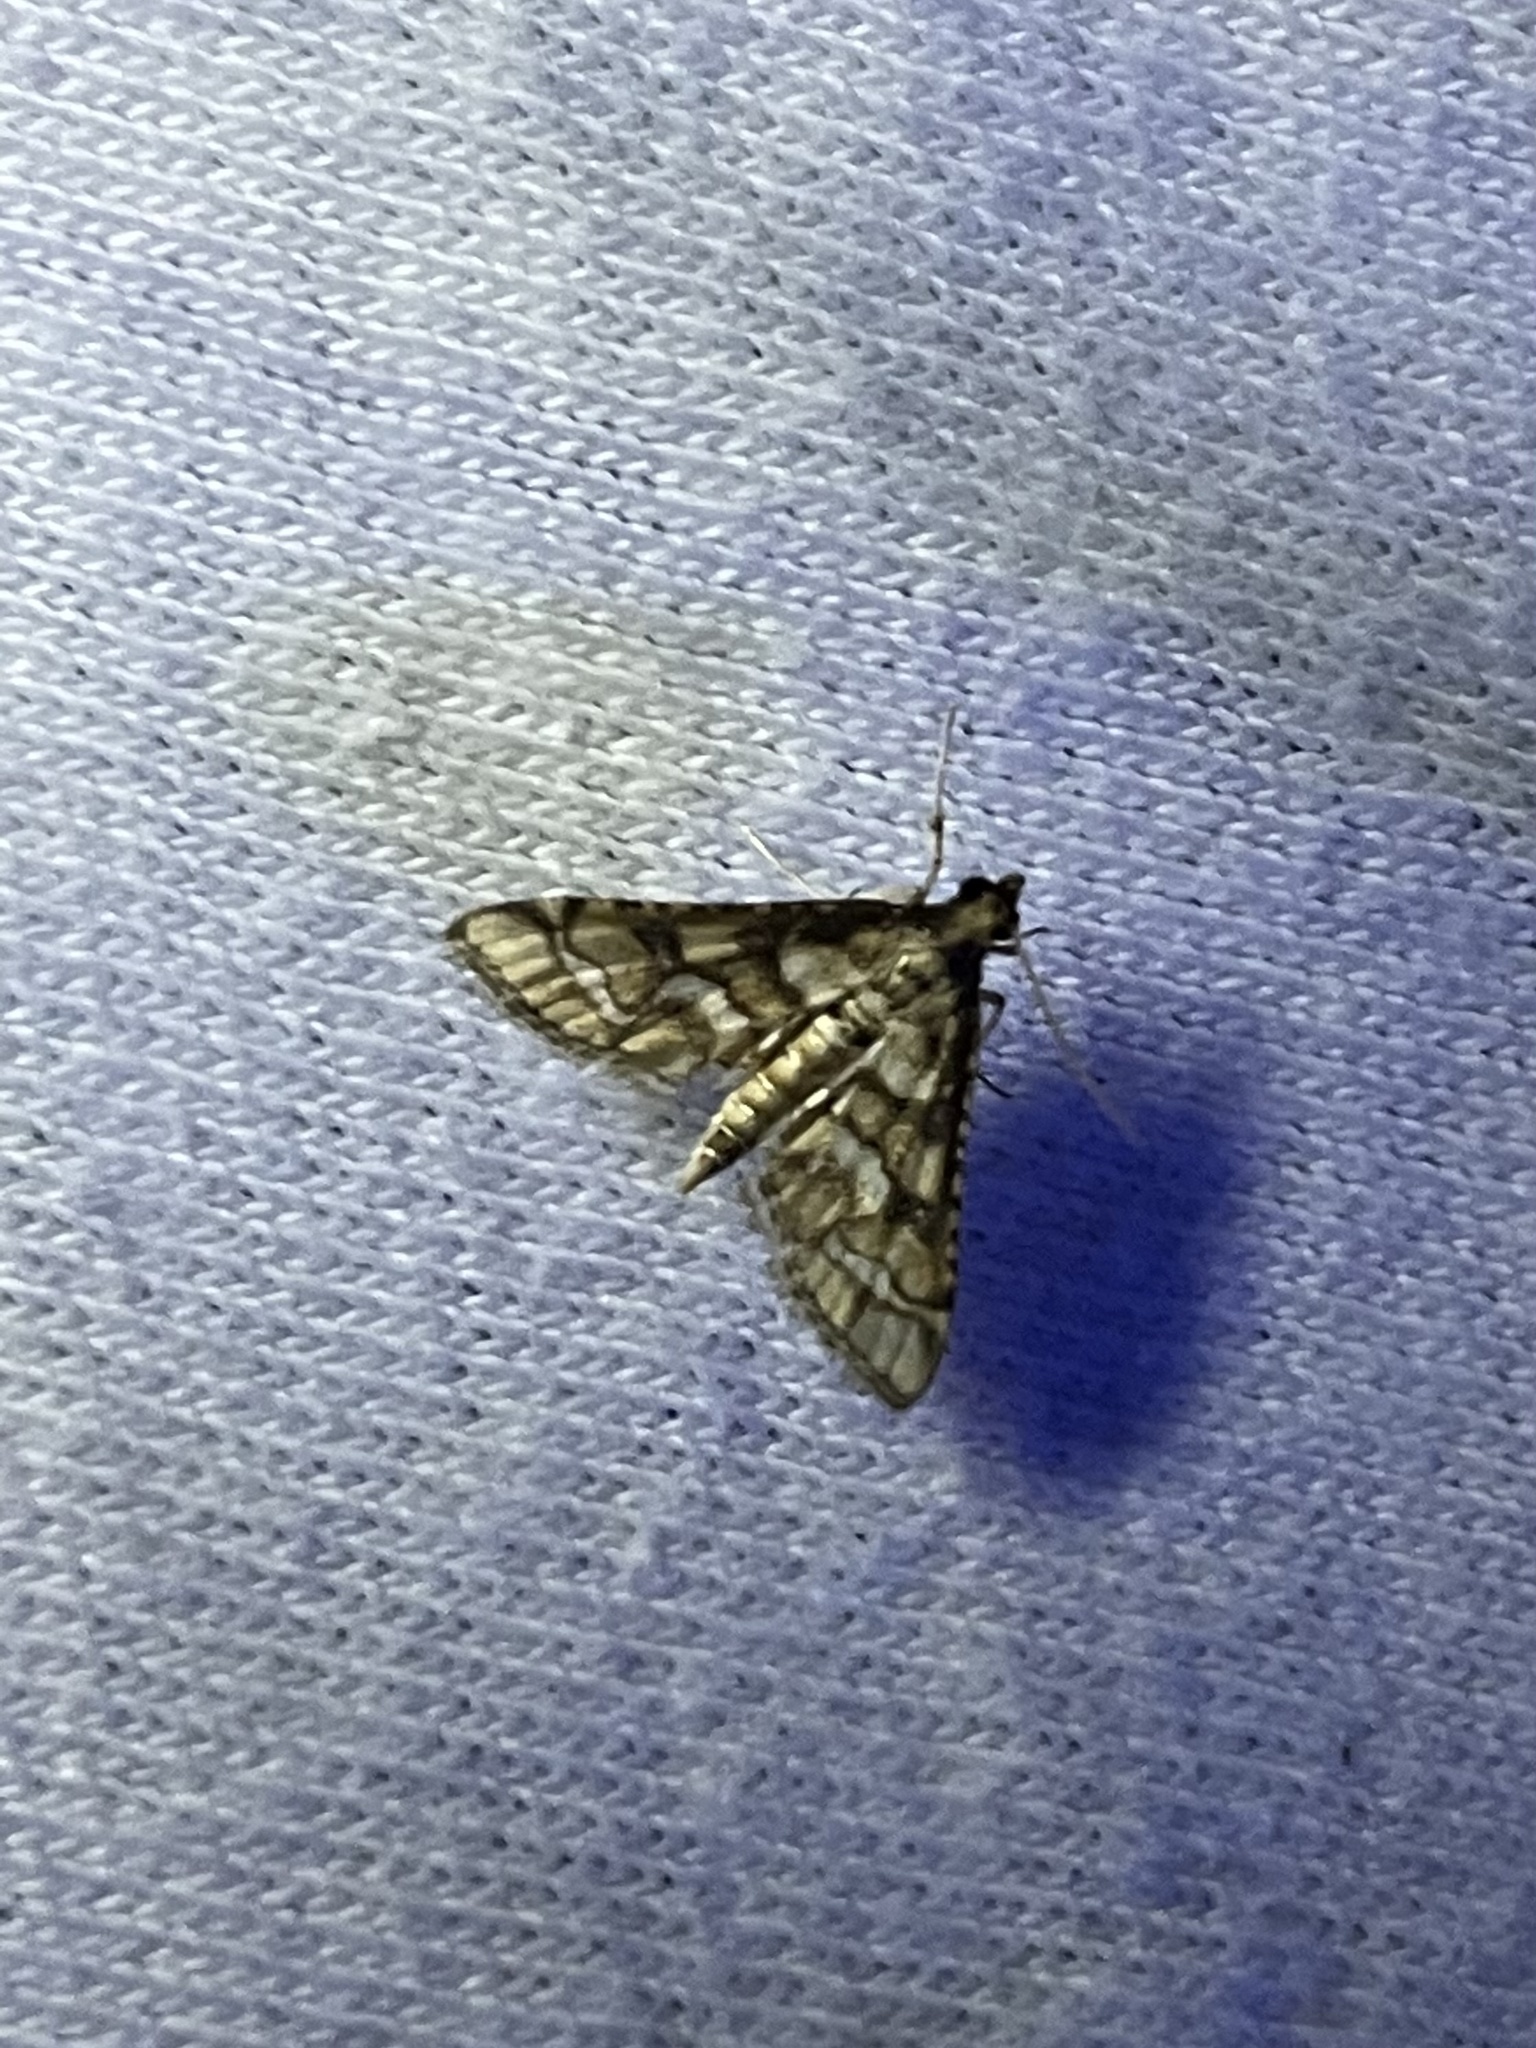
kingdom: Animalia
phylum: Arthropoda
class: Insecta
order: Lepidoptera
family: Crambidae
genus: Hileithia
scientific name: Hileithia magualis
